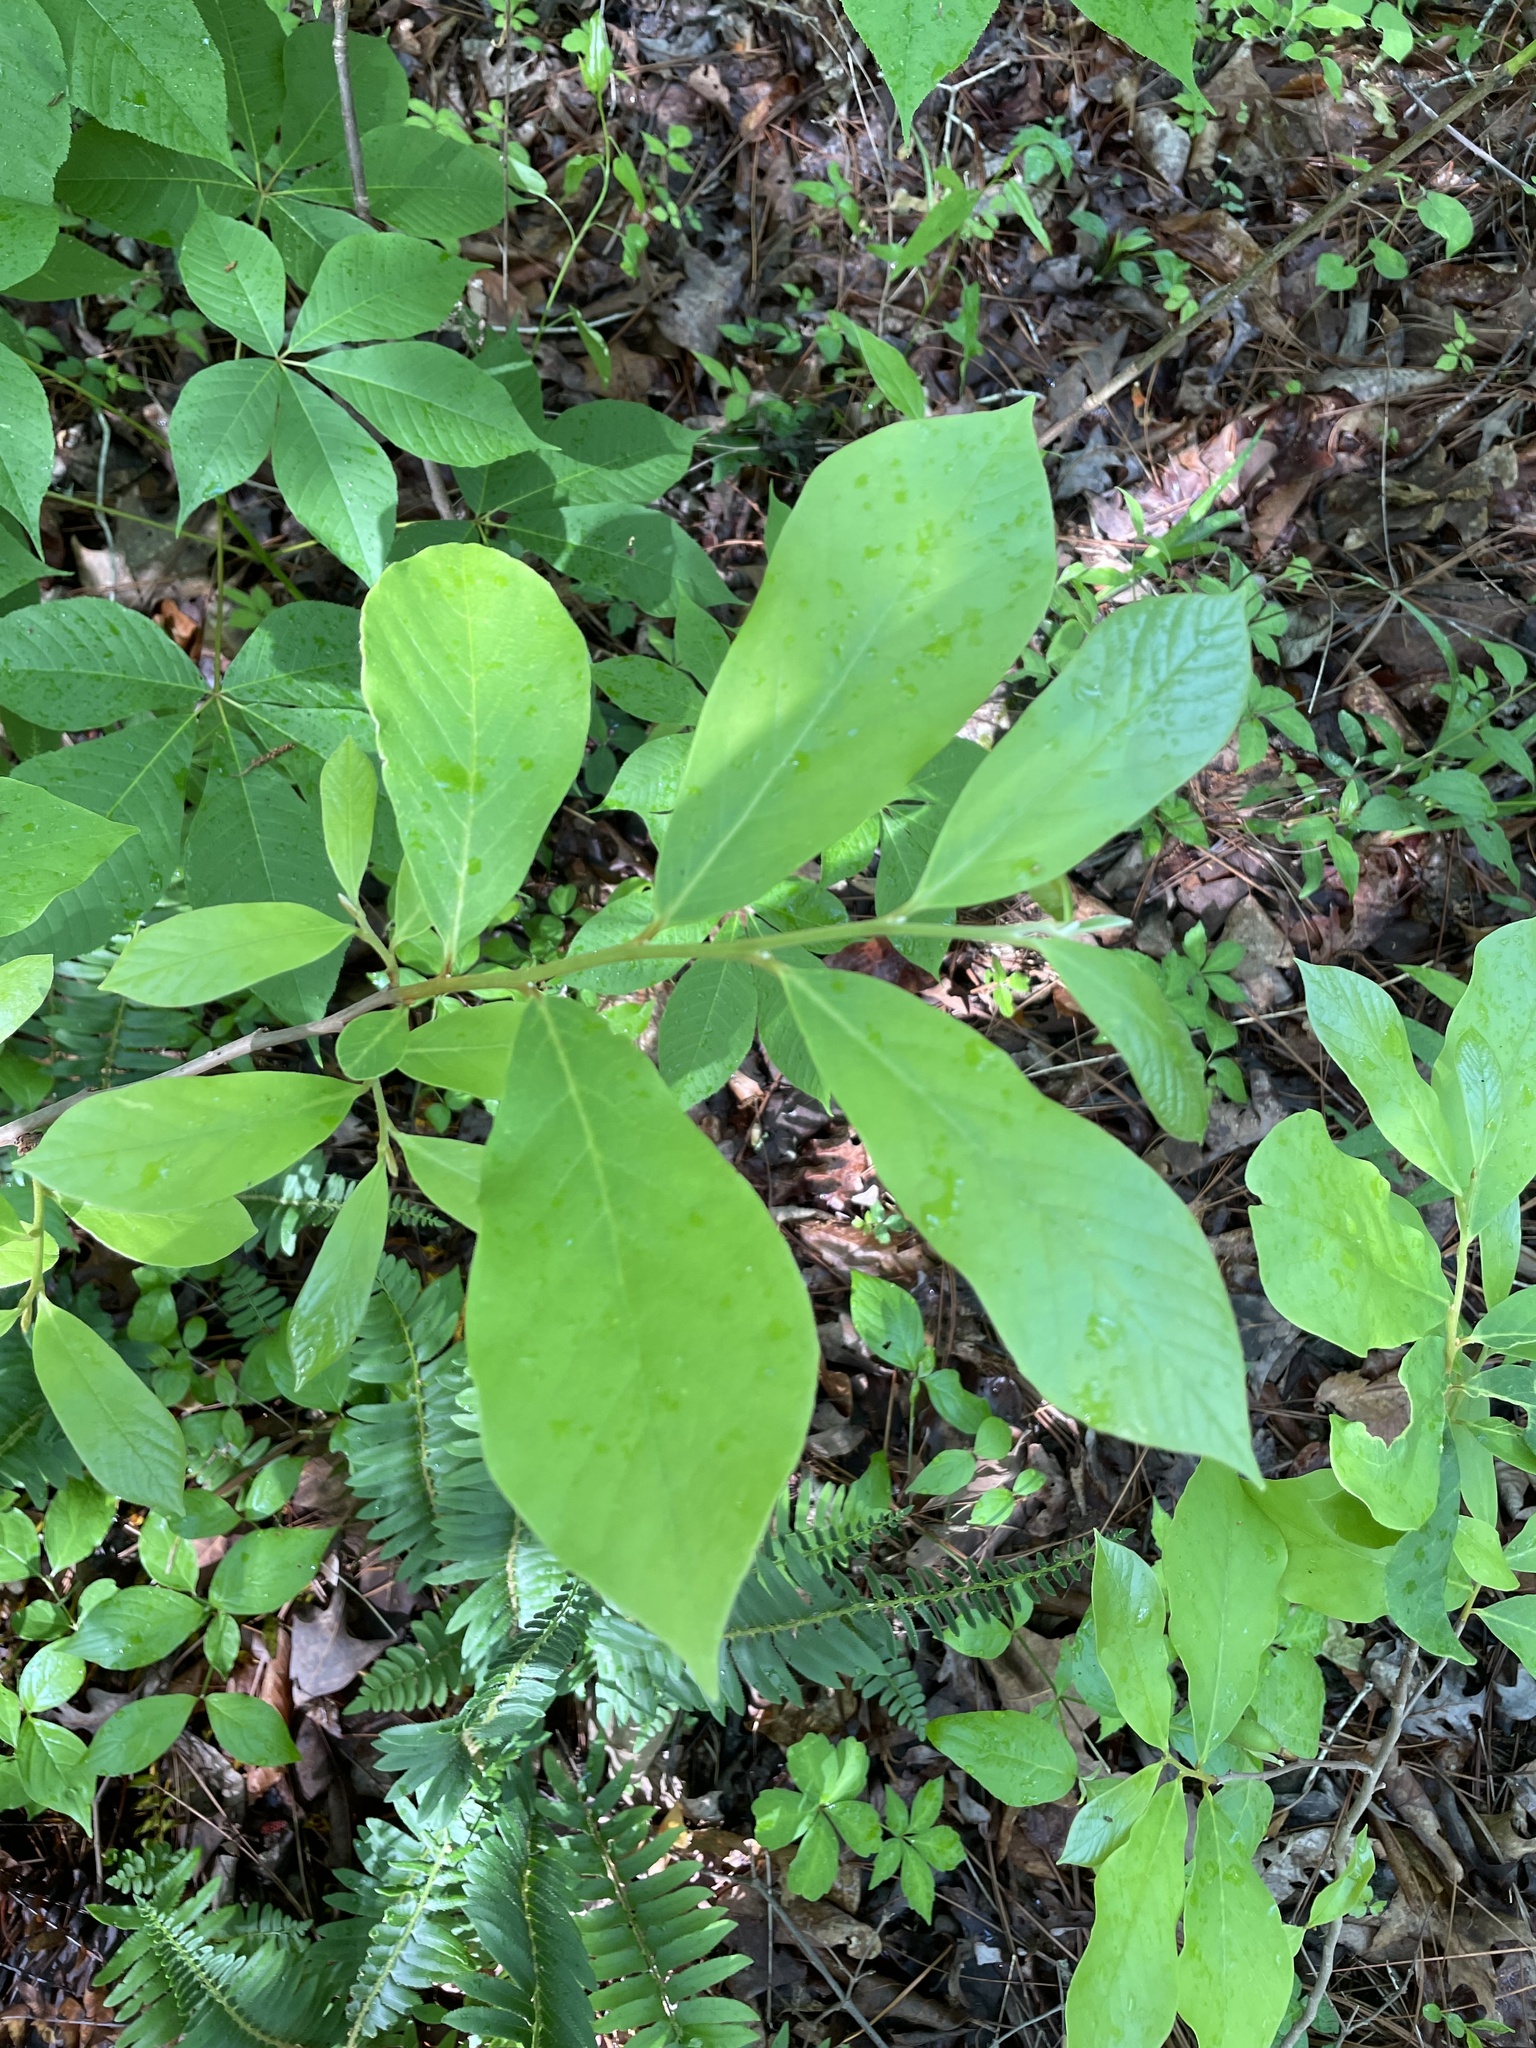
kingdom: Plantae
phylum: Tracheophyta
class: Magnoliopsida
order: Magnoliales
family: Annonaceae
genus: Asimina
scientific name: Asimina parviflora
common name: Dwarf pawpaw
